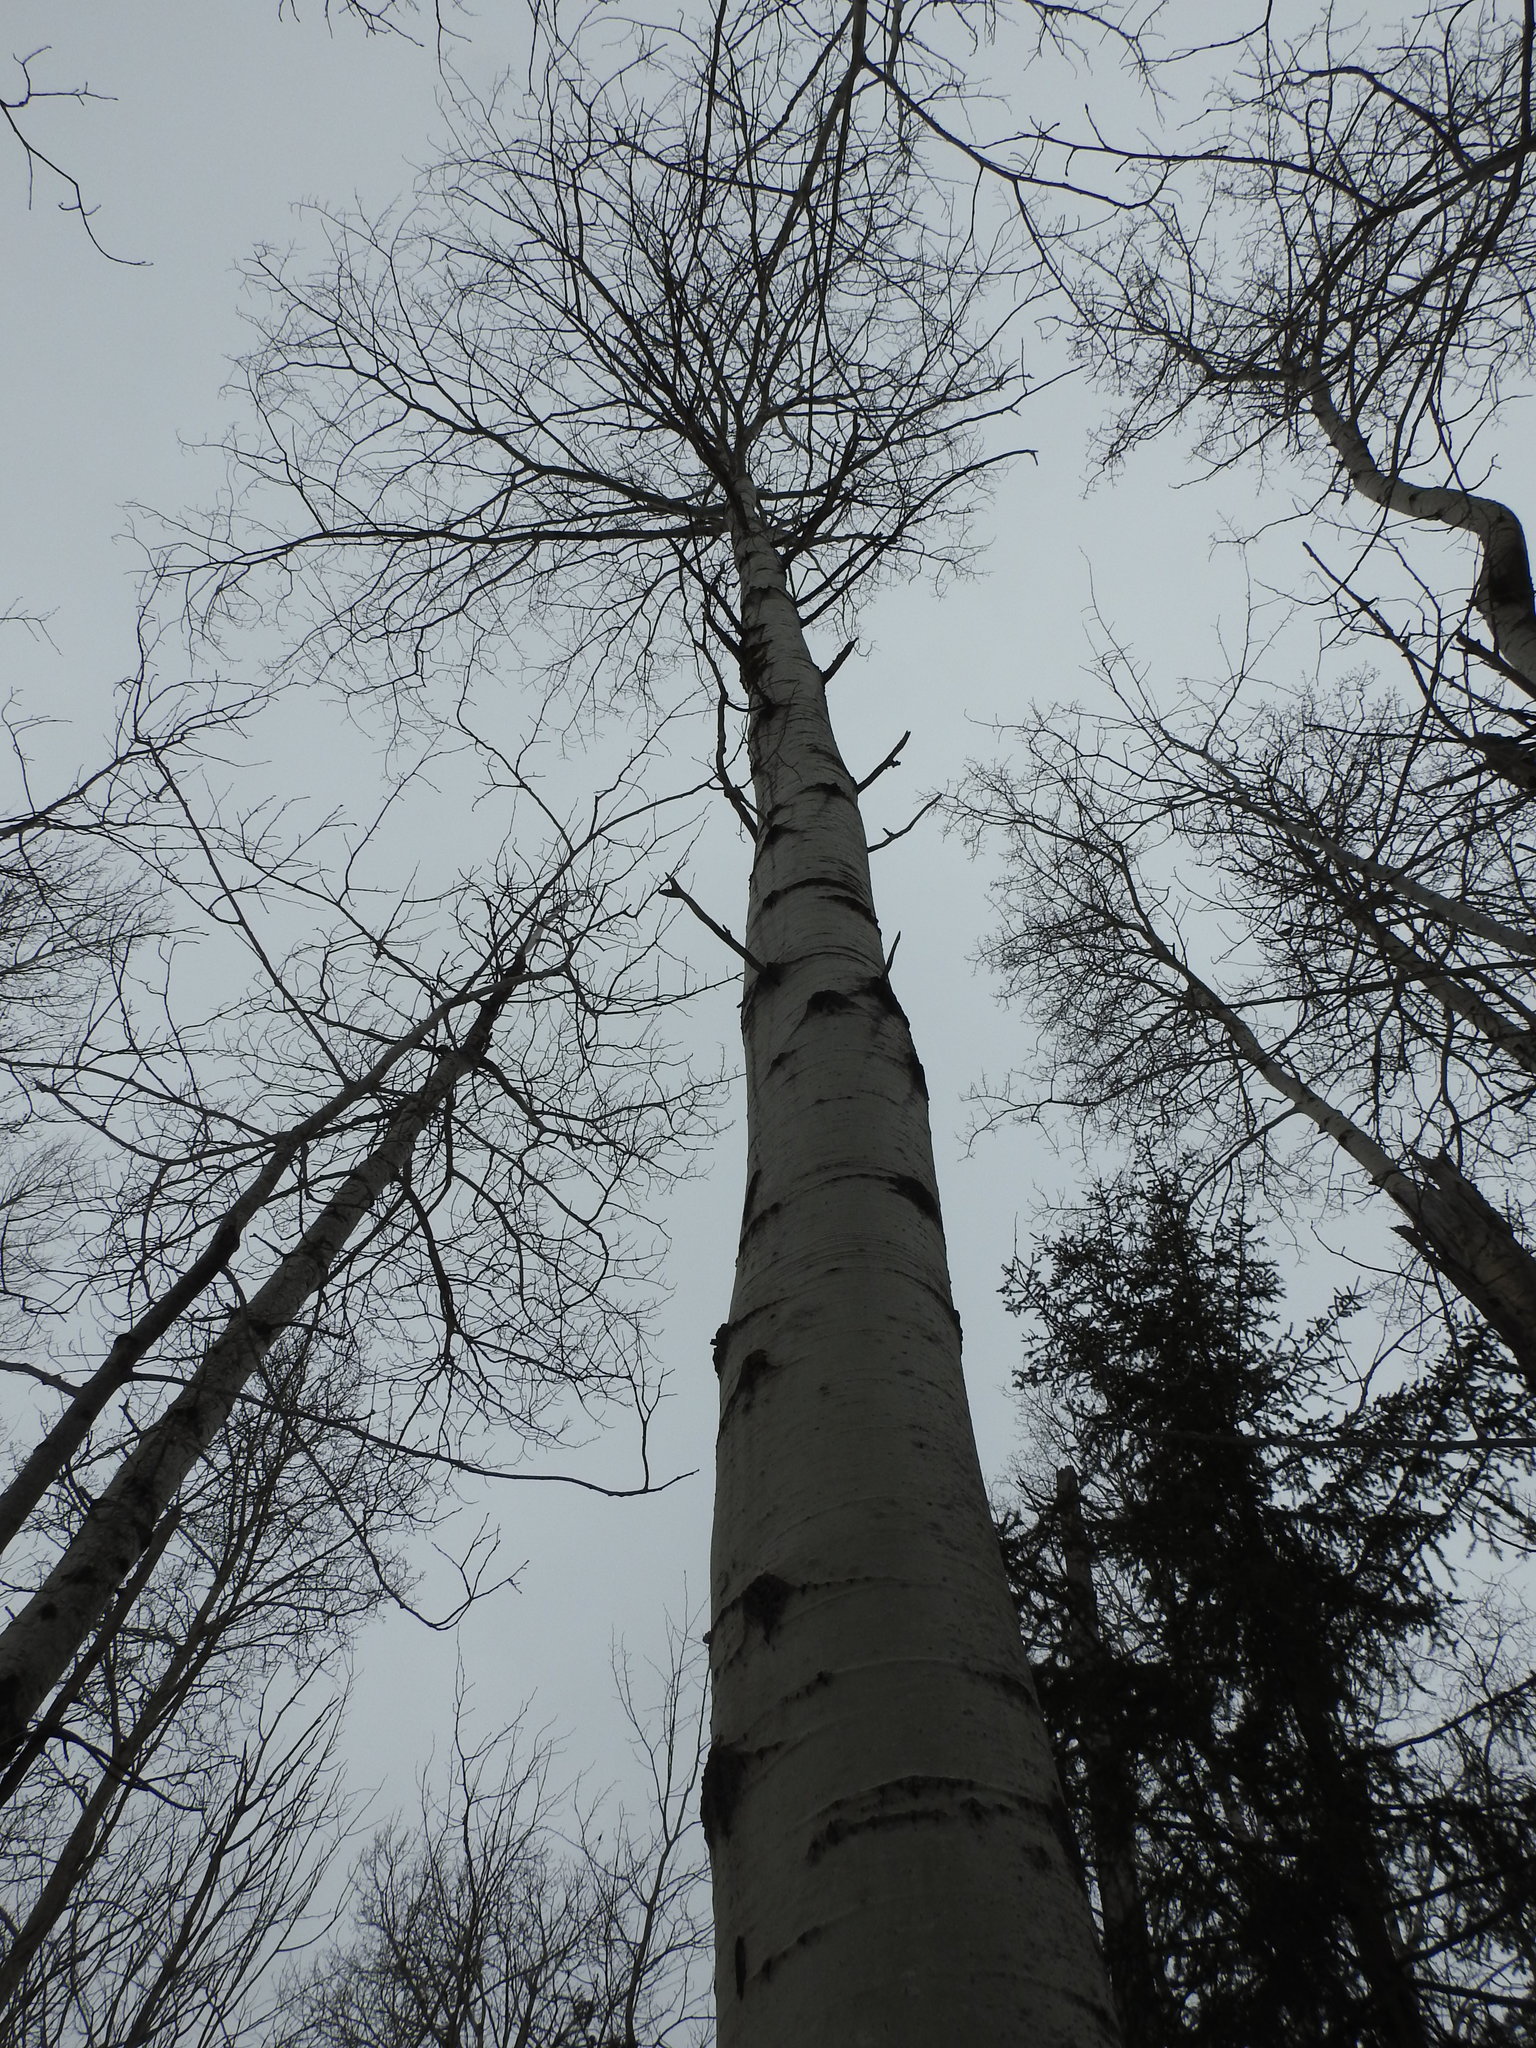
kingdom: Plantae
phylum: Tracheophyta
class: Magnoliopsida
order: Malpighiales
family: Salicaceae
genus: Populus
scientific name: Populus tremuloides
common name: Quaking aspen
